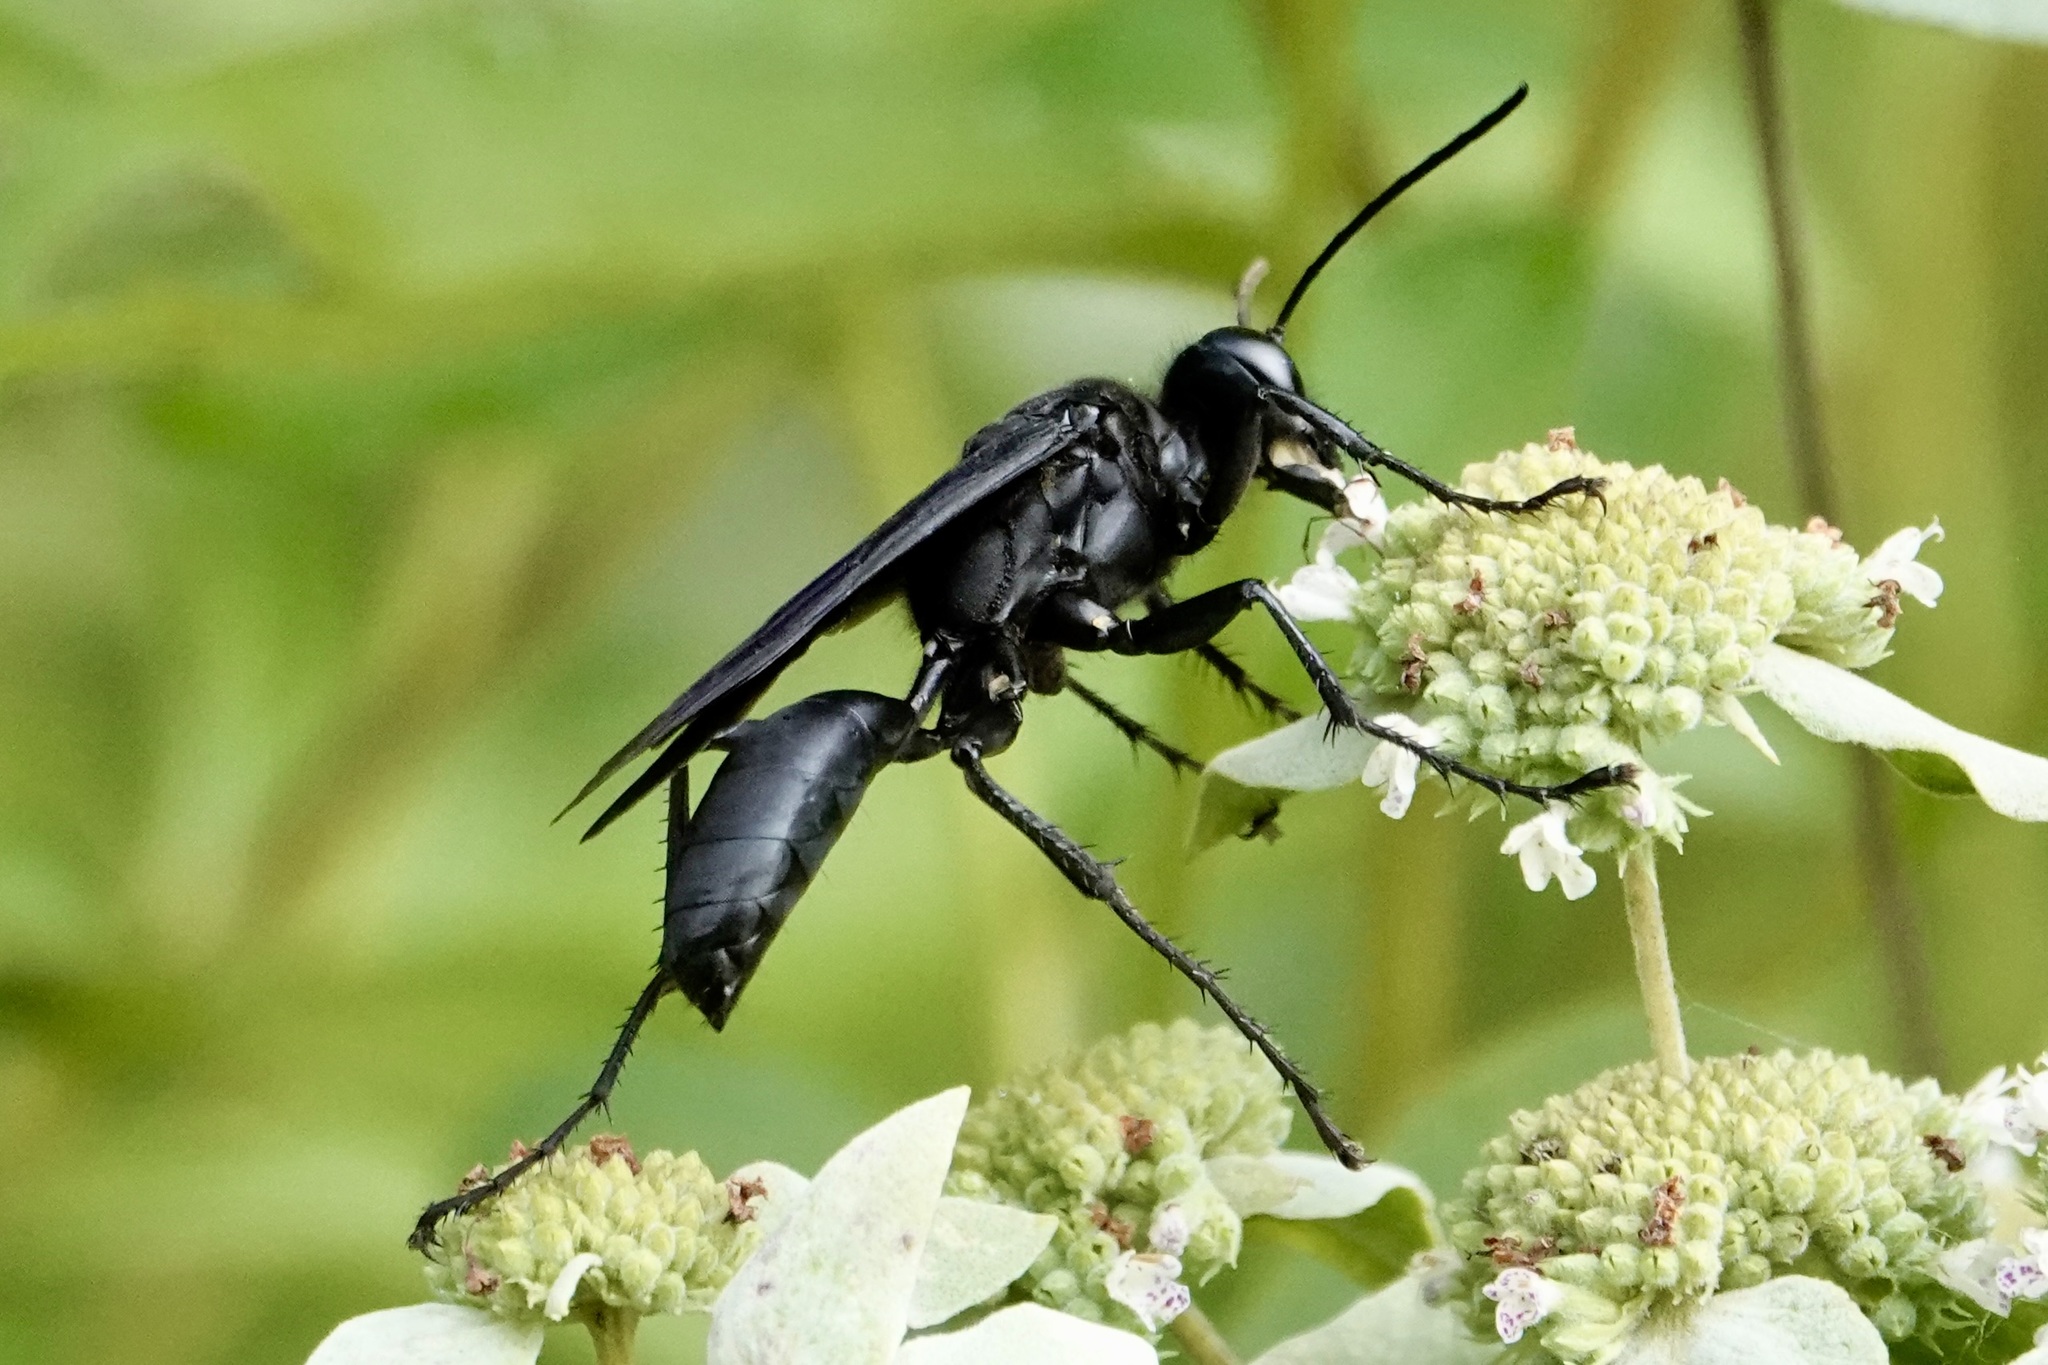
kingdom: Animalia
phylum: Arthropoda
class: Insecta
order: Hymenoptera
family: Sphecidae
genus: Sphex
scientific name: Sphex pensylvanicus
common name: Great black digger wasp
